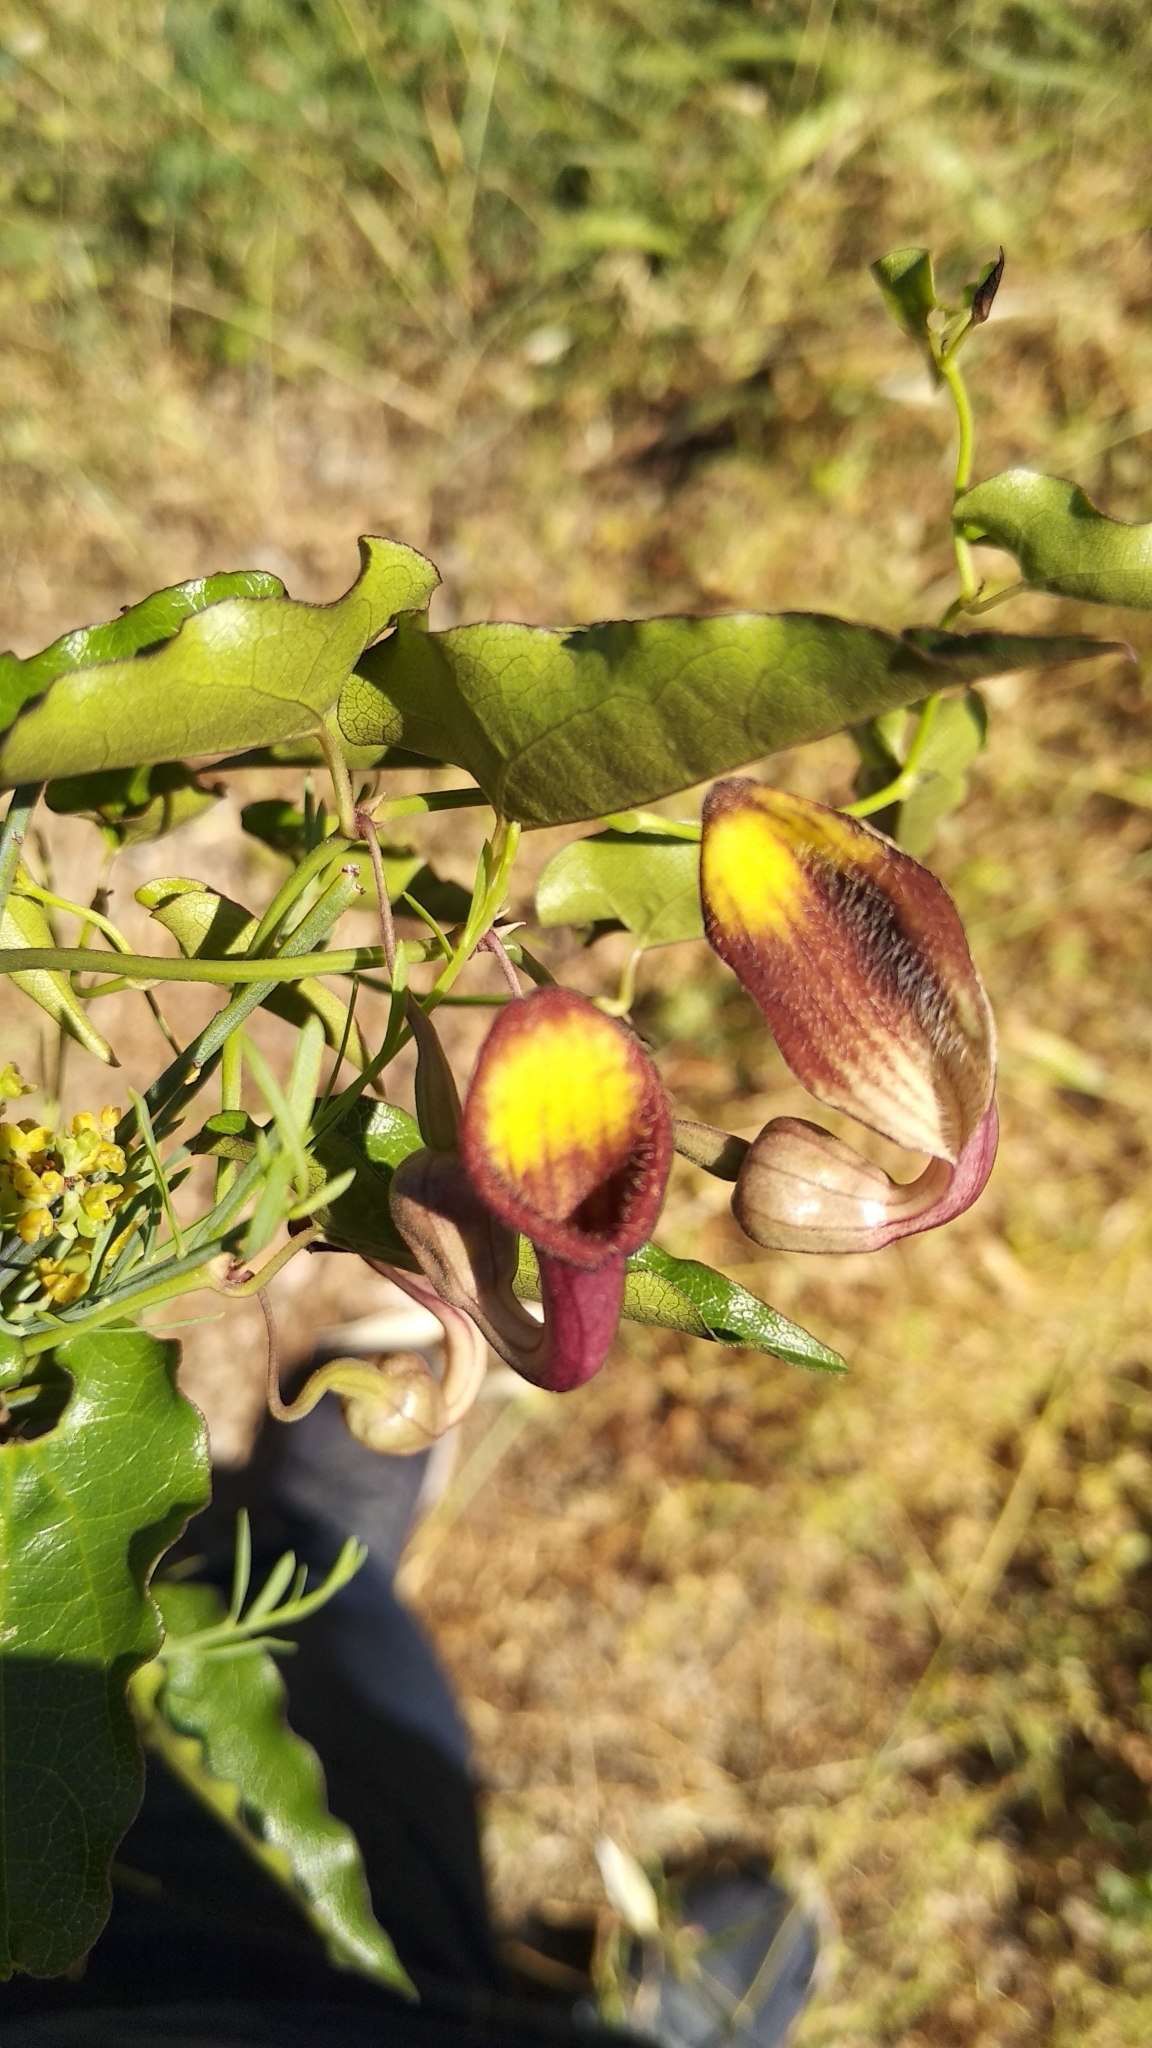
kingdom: Plantae
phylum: Tracheophyta
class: Magnoliopsida
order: Piperales
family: Aristolochiaceae
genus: Aristolochia
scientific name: Aristolochia sempervirens
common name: Long birthwort
